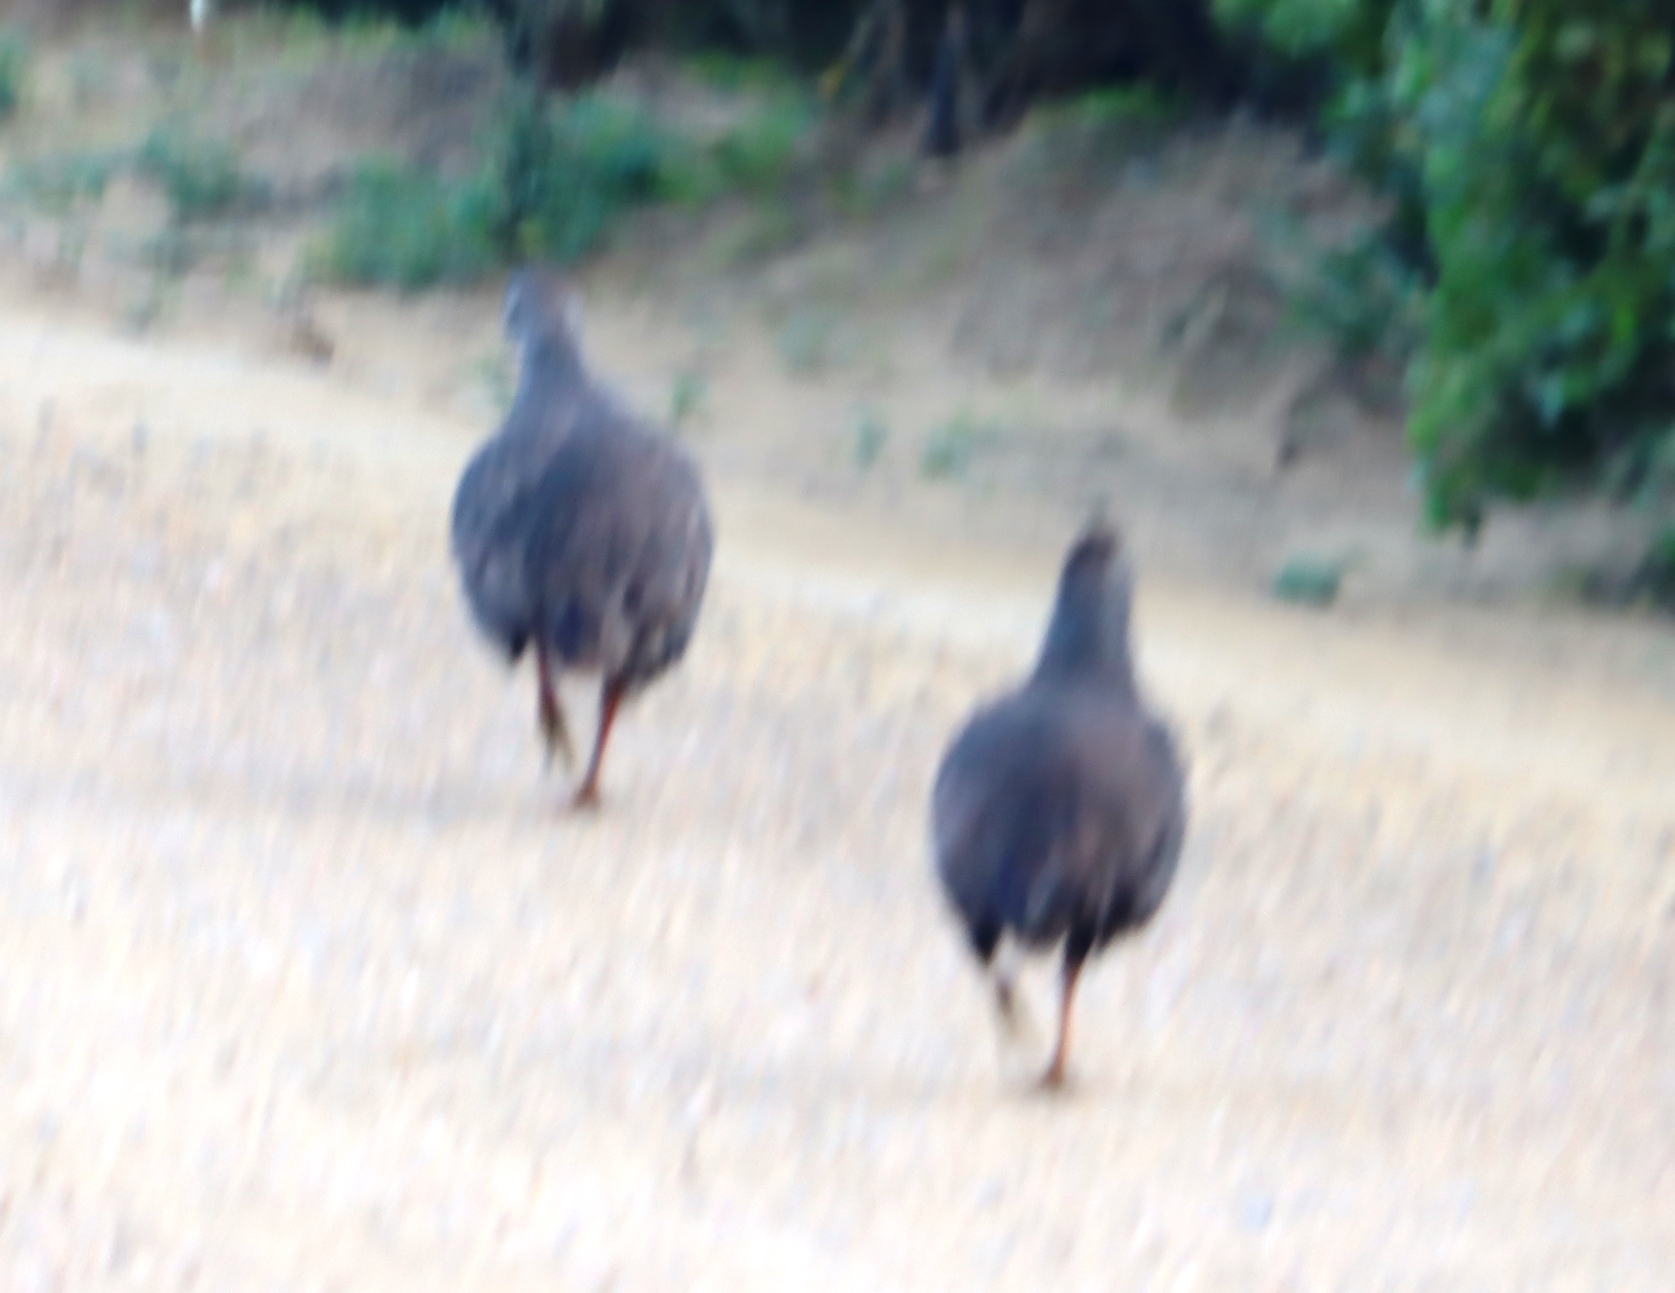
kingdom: Animalia
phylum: Chordata
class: Aves
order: Galliformes
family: Phasianidae
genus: Pternistis
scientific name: Pternistis capensis
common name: Cape spurfowl
